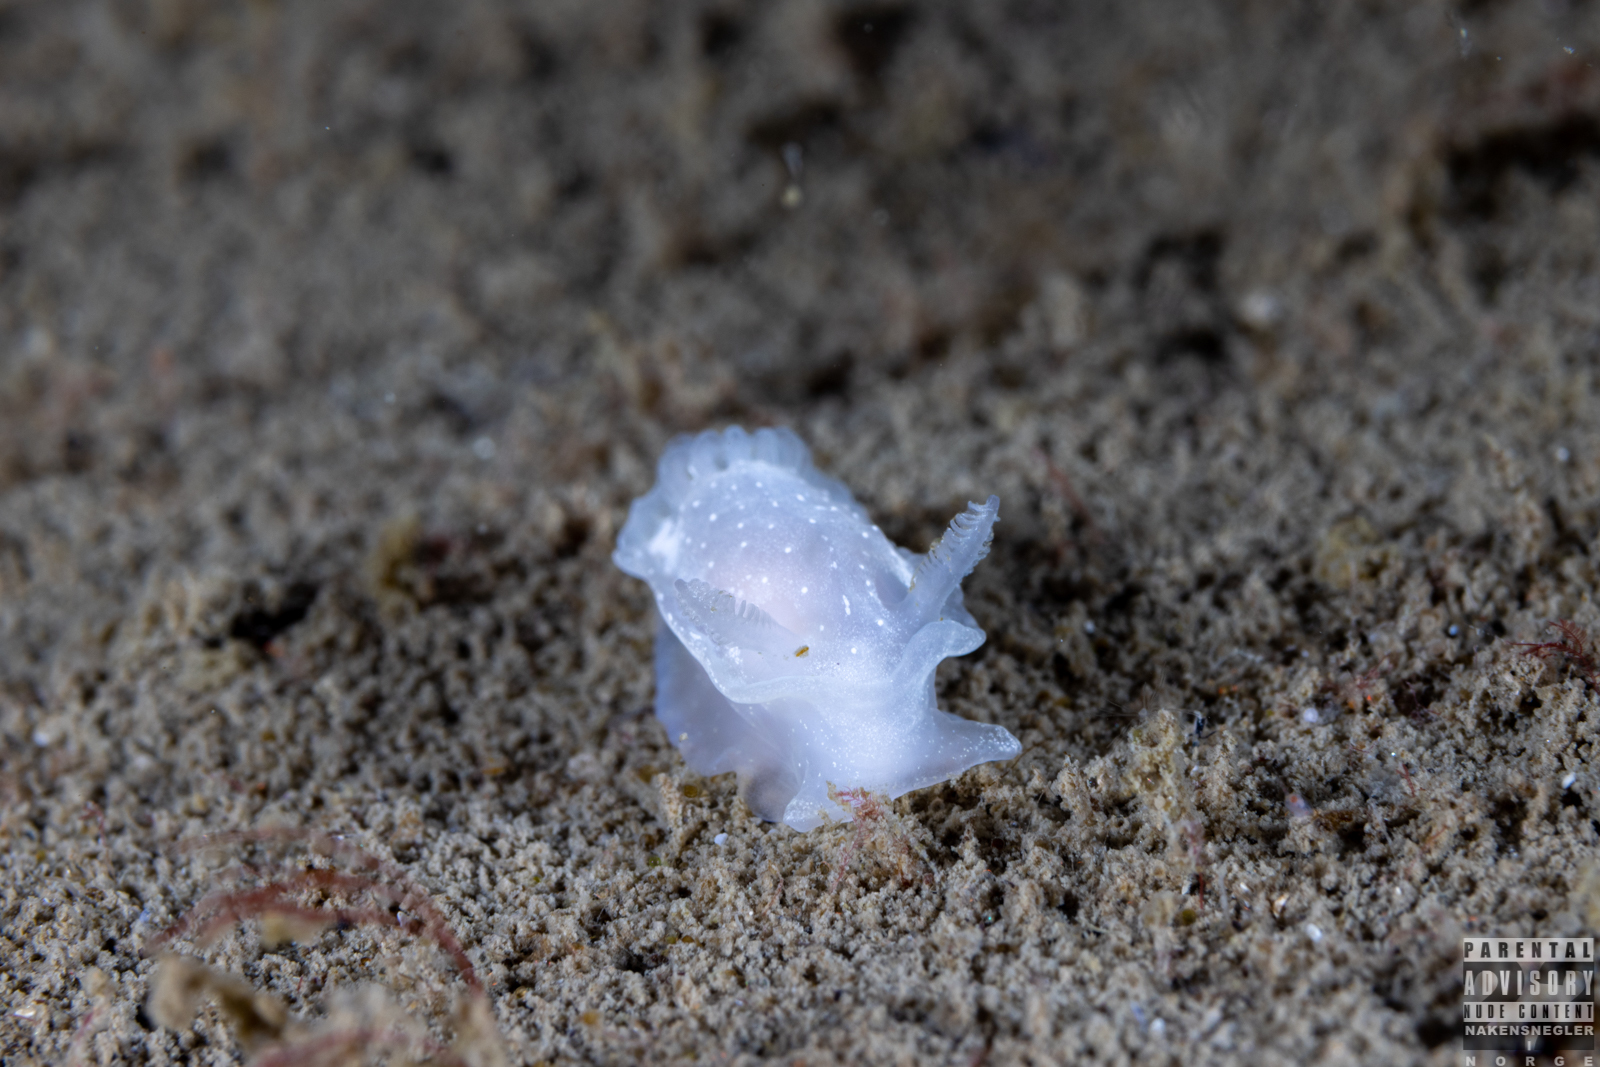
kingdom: Animalia
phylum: Mollusca
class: Gastropoda
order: Nudibranchia
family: Goniodorididae
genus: Okenia
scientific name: Okenia
